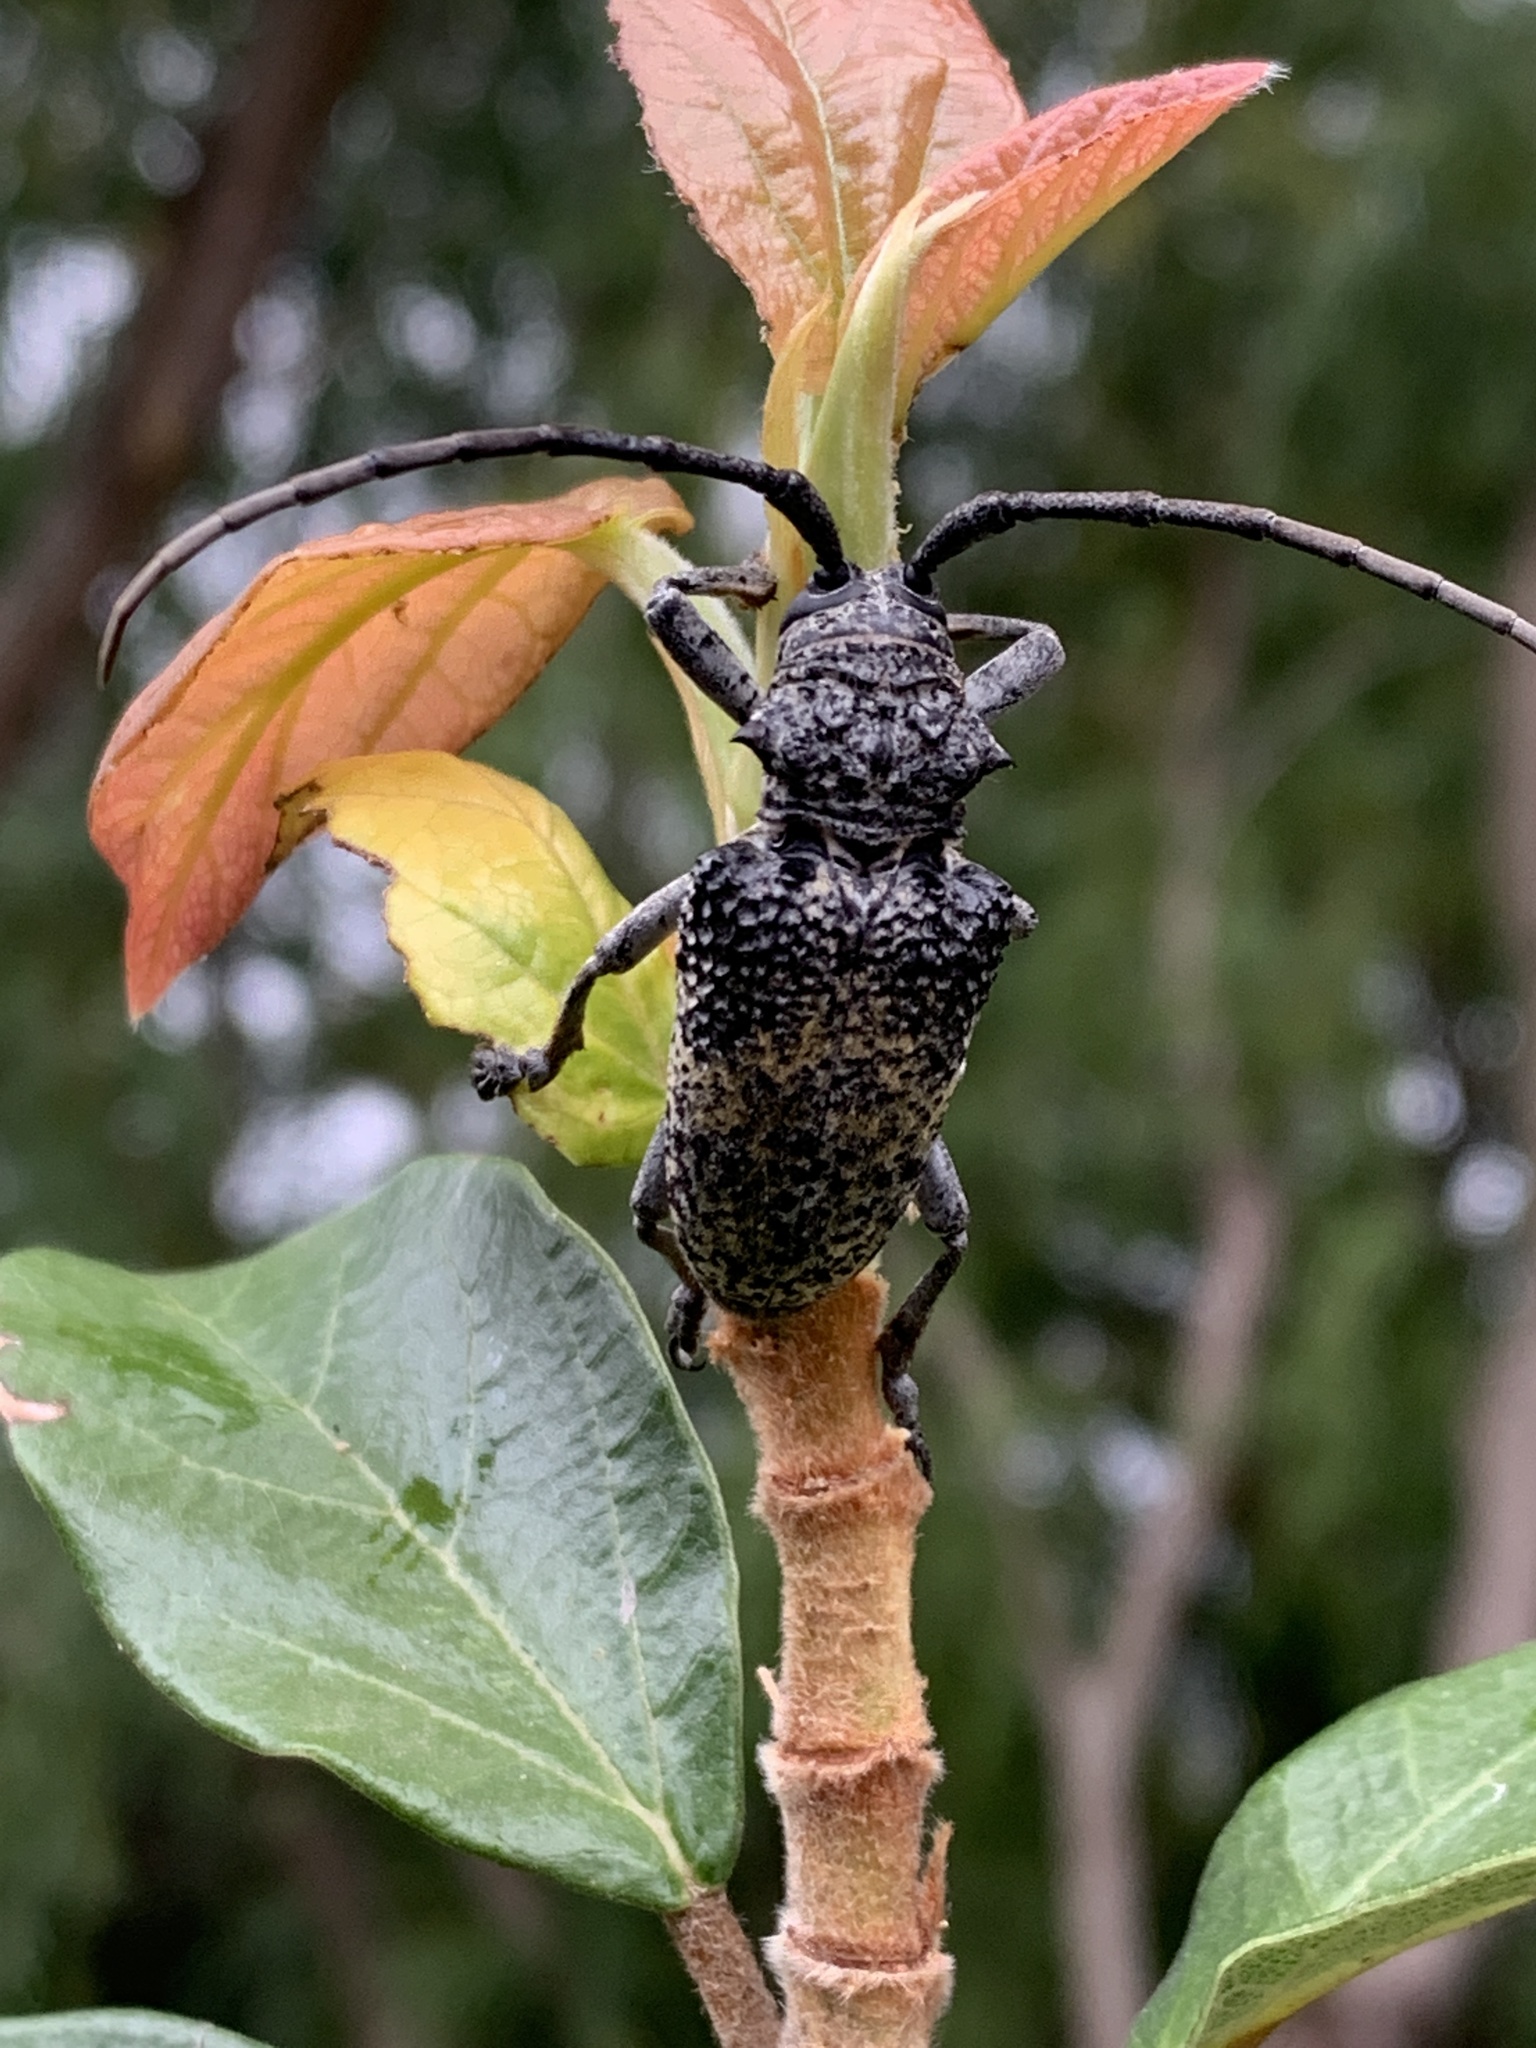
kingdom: Animalia
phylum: Arthropoda
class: Insecta
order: Coleoptera
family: Cerambycidae
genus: Phryneta
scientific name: Phryneta spinator
